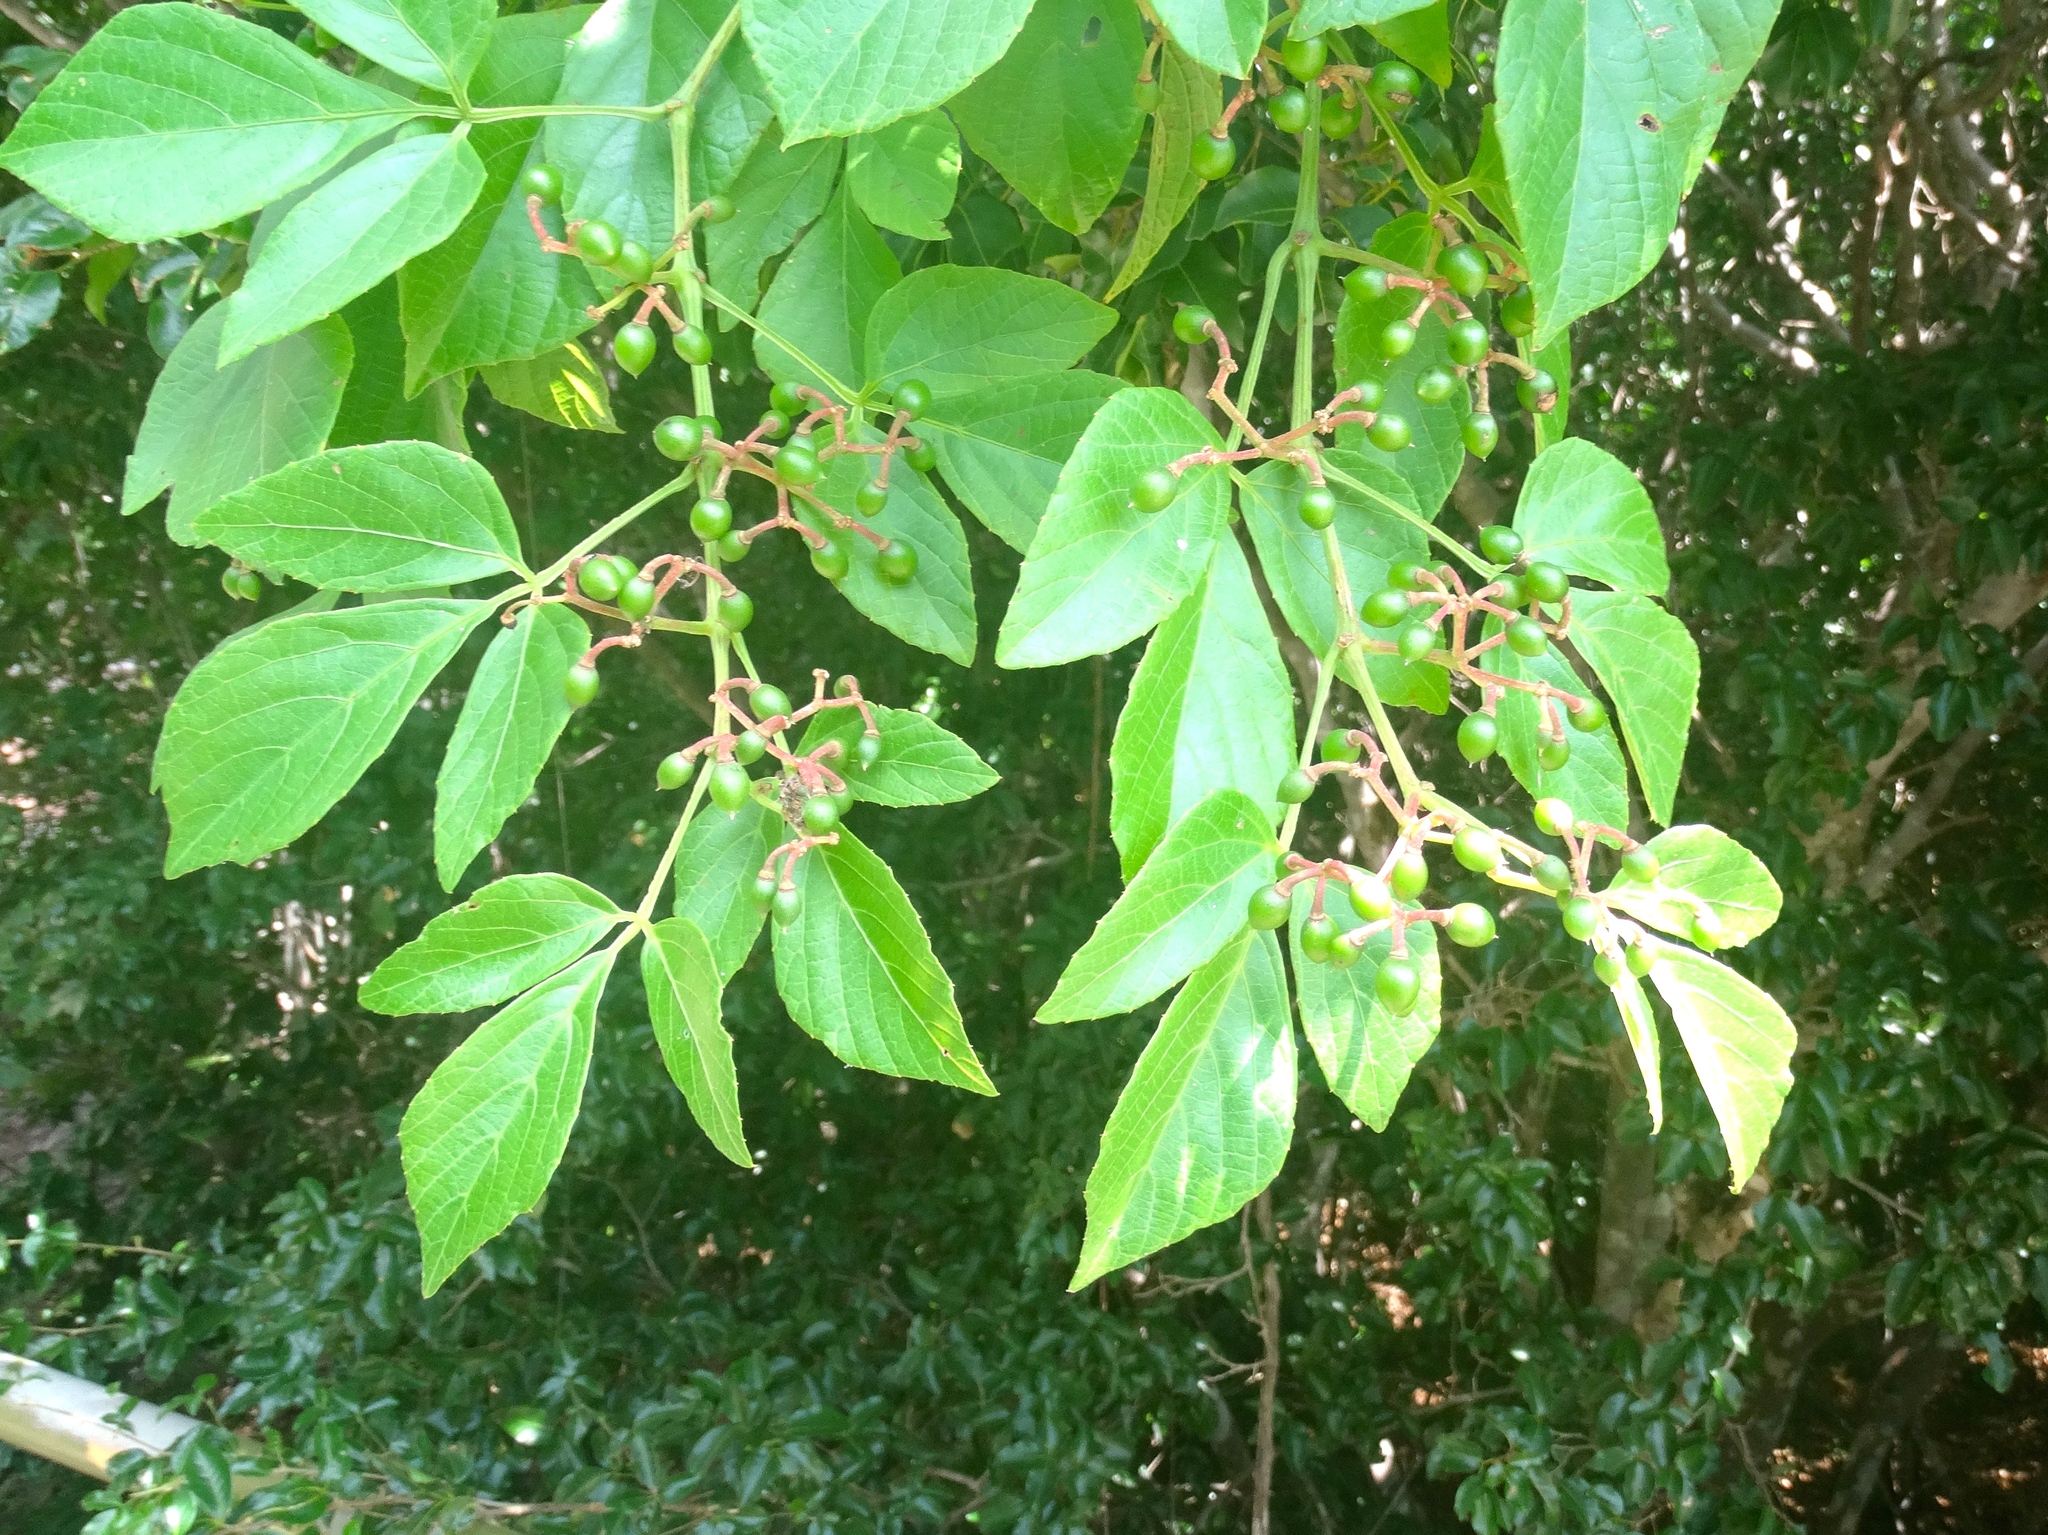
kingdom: Plantae
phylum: Tracheophyta
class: Magnoliopsida
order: Vitales
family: Vitaceae
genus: Cissus
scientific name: Cissus erosa
